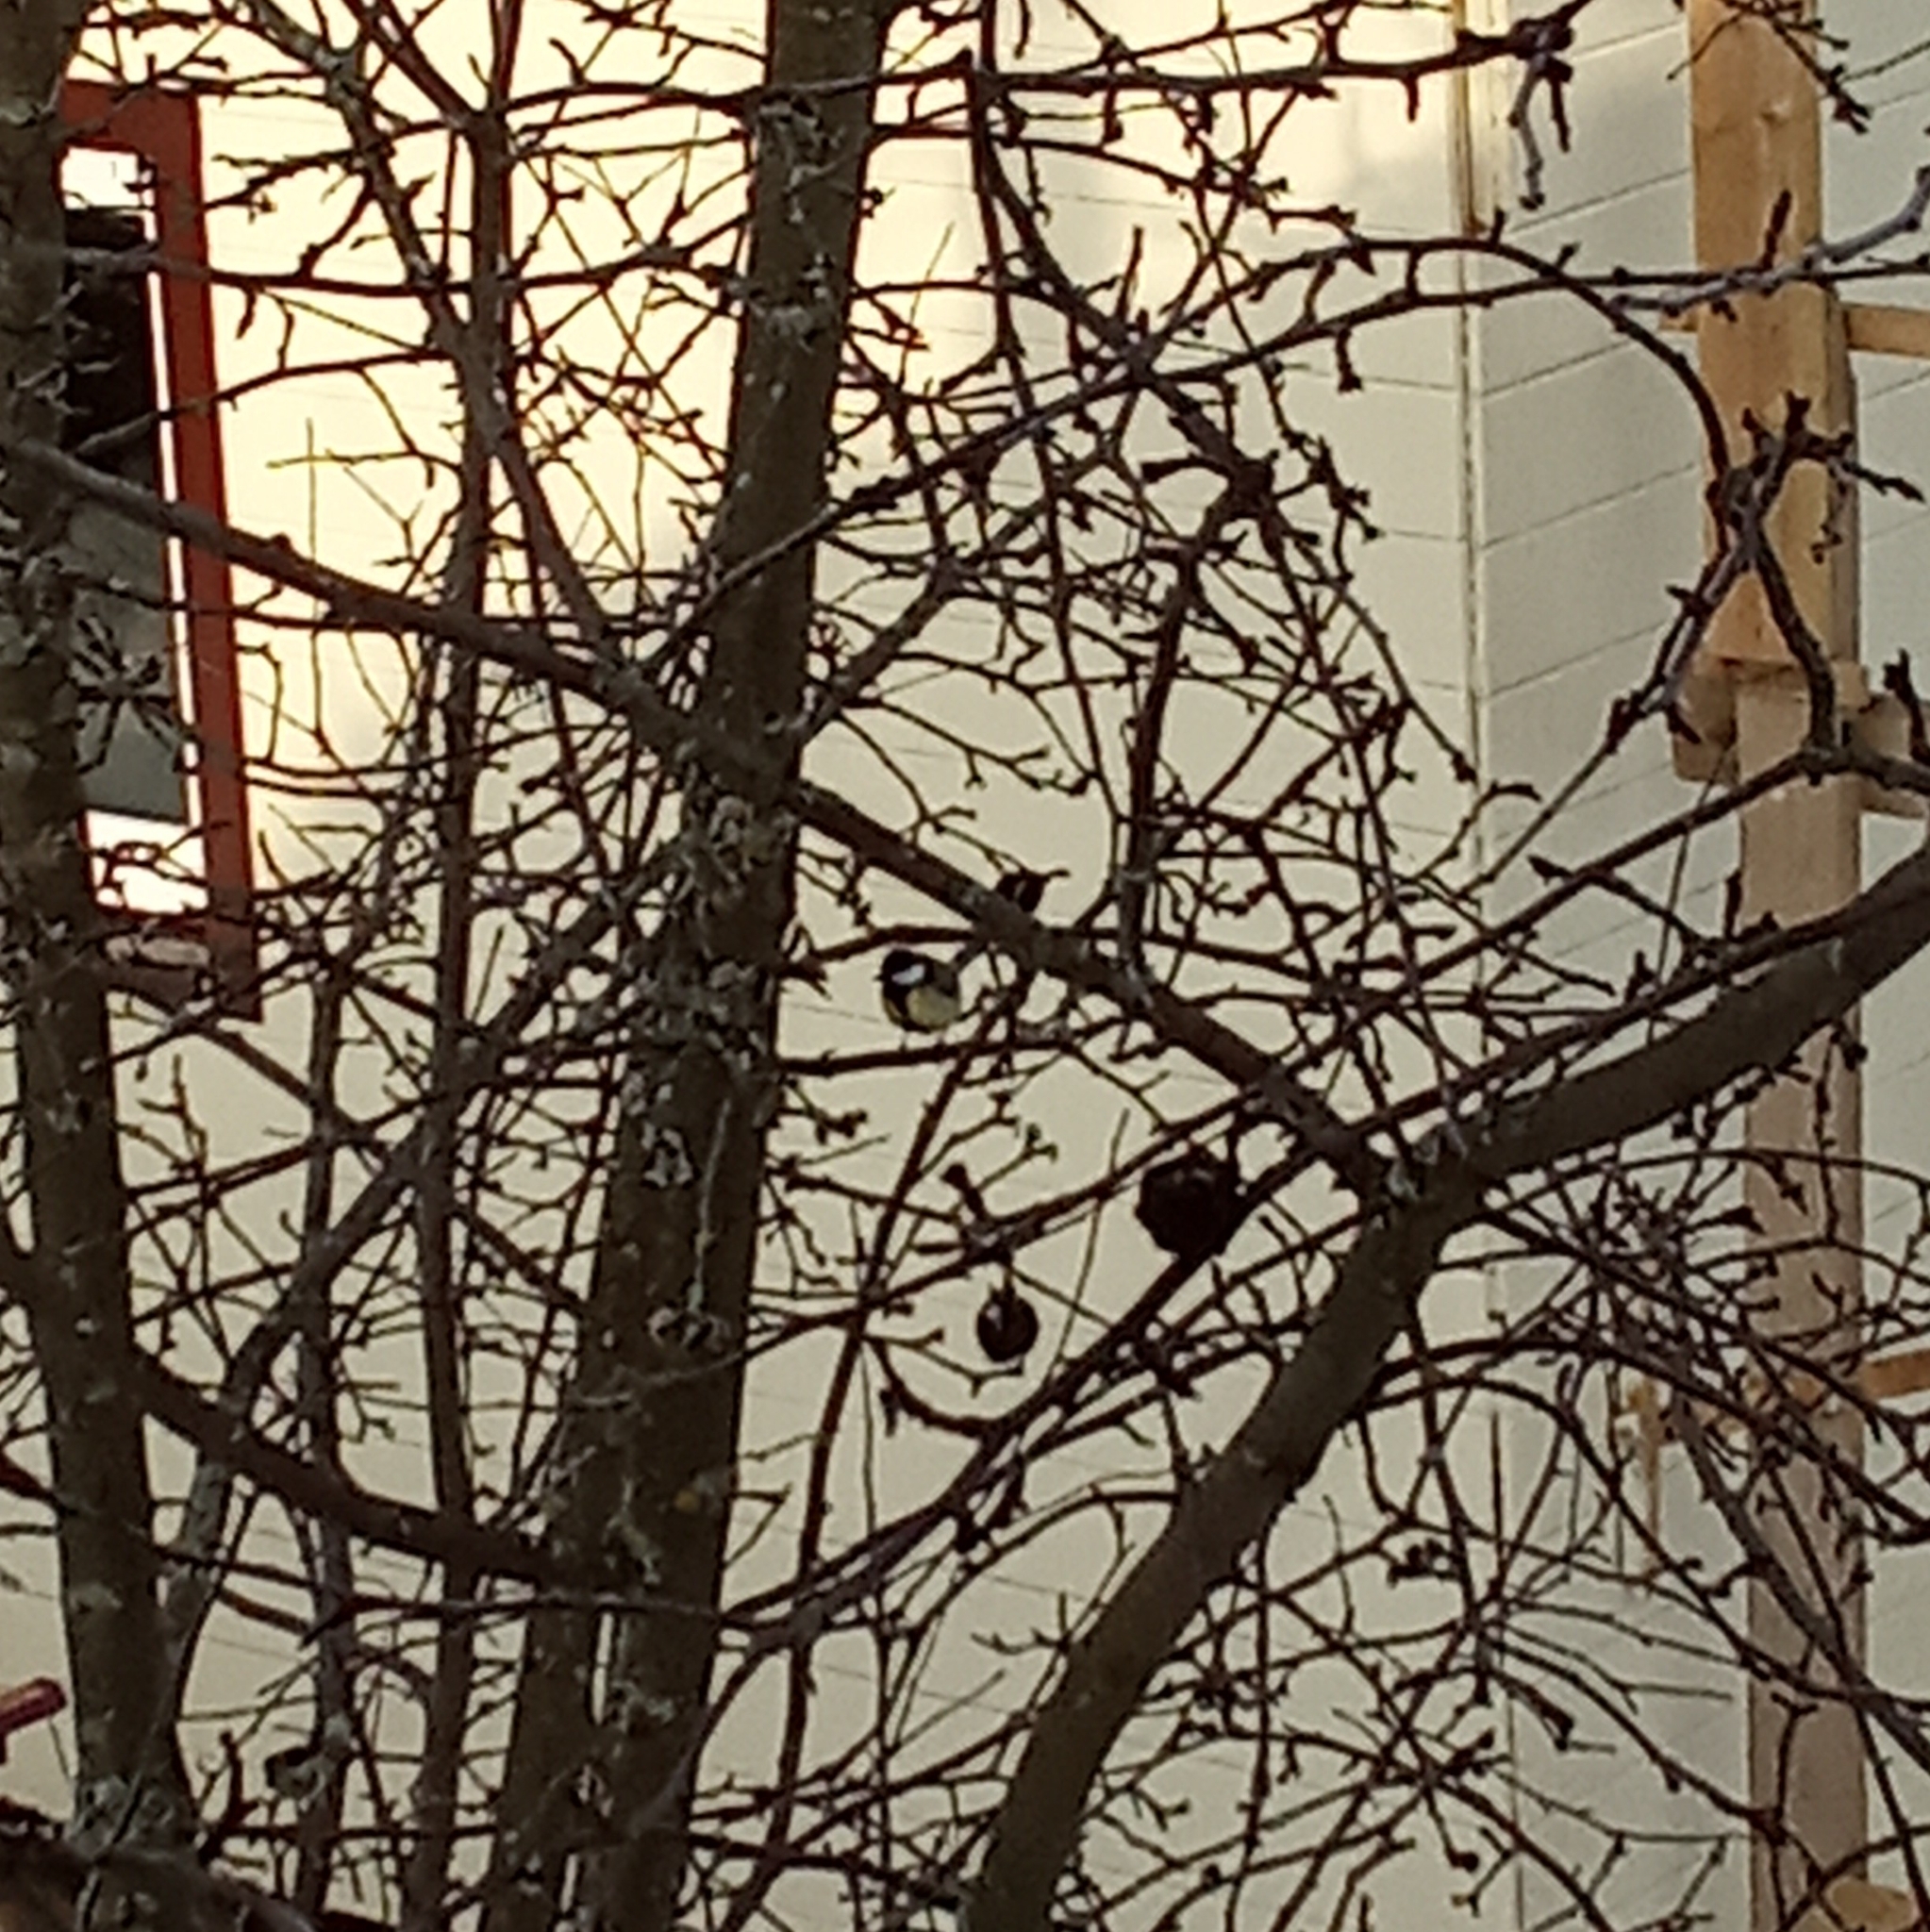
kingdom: Animalia
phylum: Chordata
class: Aves
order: Passeriformes
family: Paridae
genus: Parus
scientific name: Parus major
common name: Great tit
